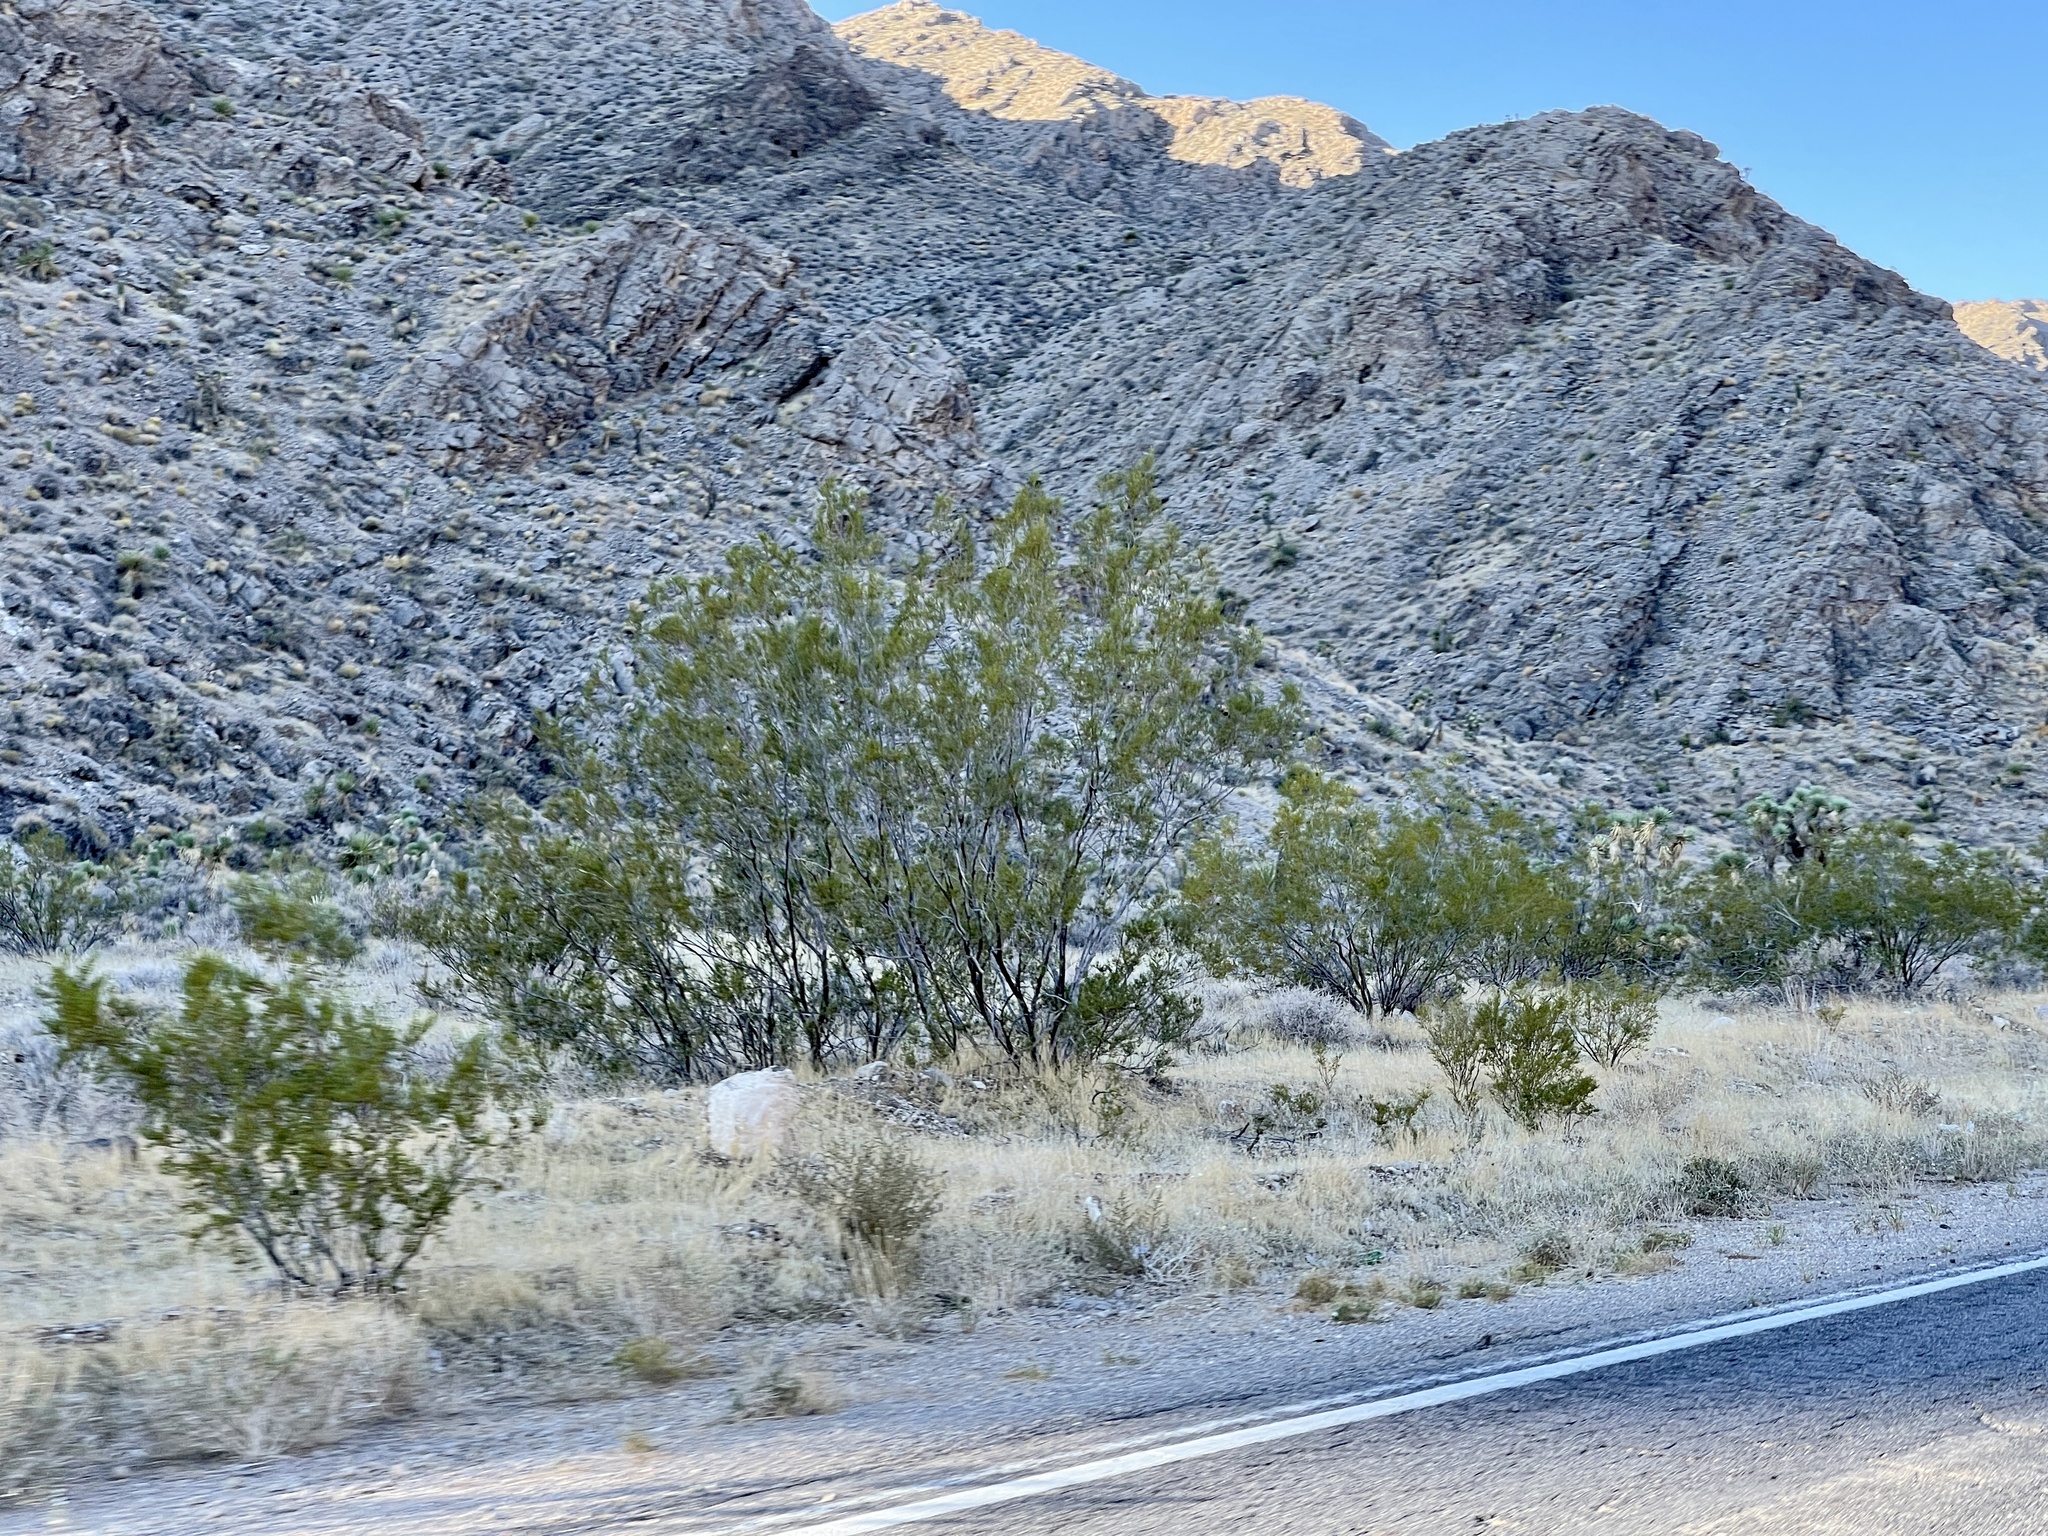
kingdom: Plantae
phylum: Tracheophyta
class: Magnoliopsida
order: Zygophyllales
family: Zygophyllaceae
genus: Larrea
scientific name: Larrea tridentata
